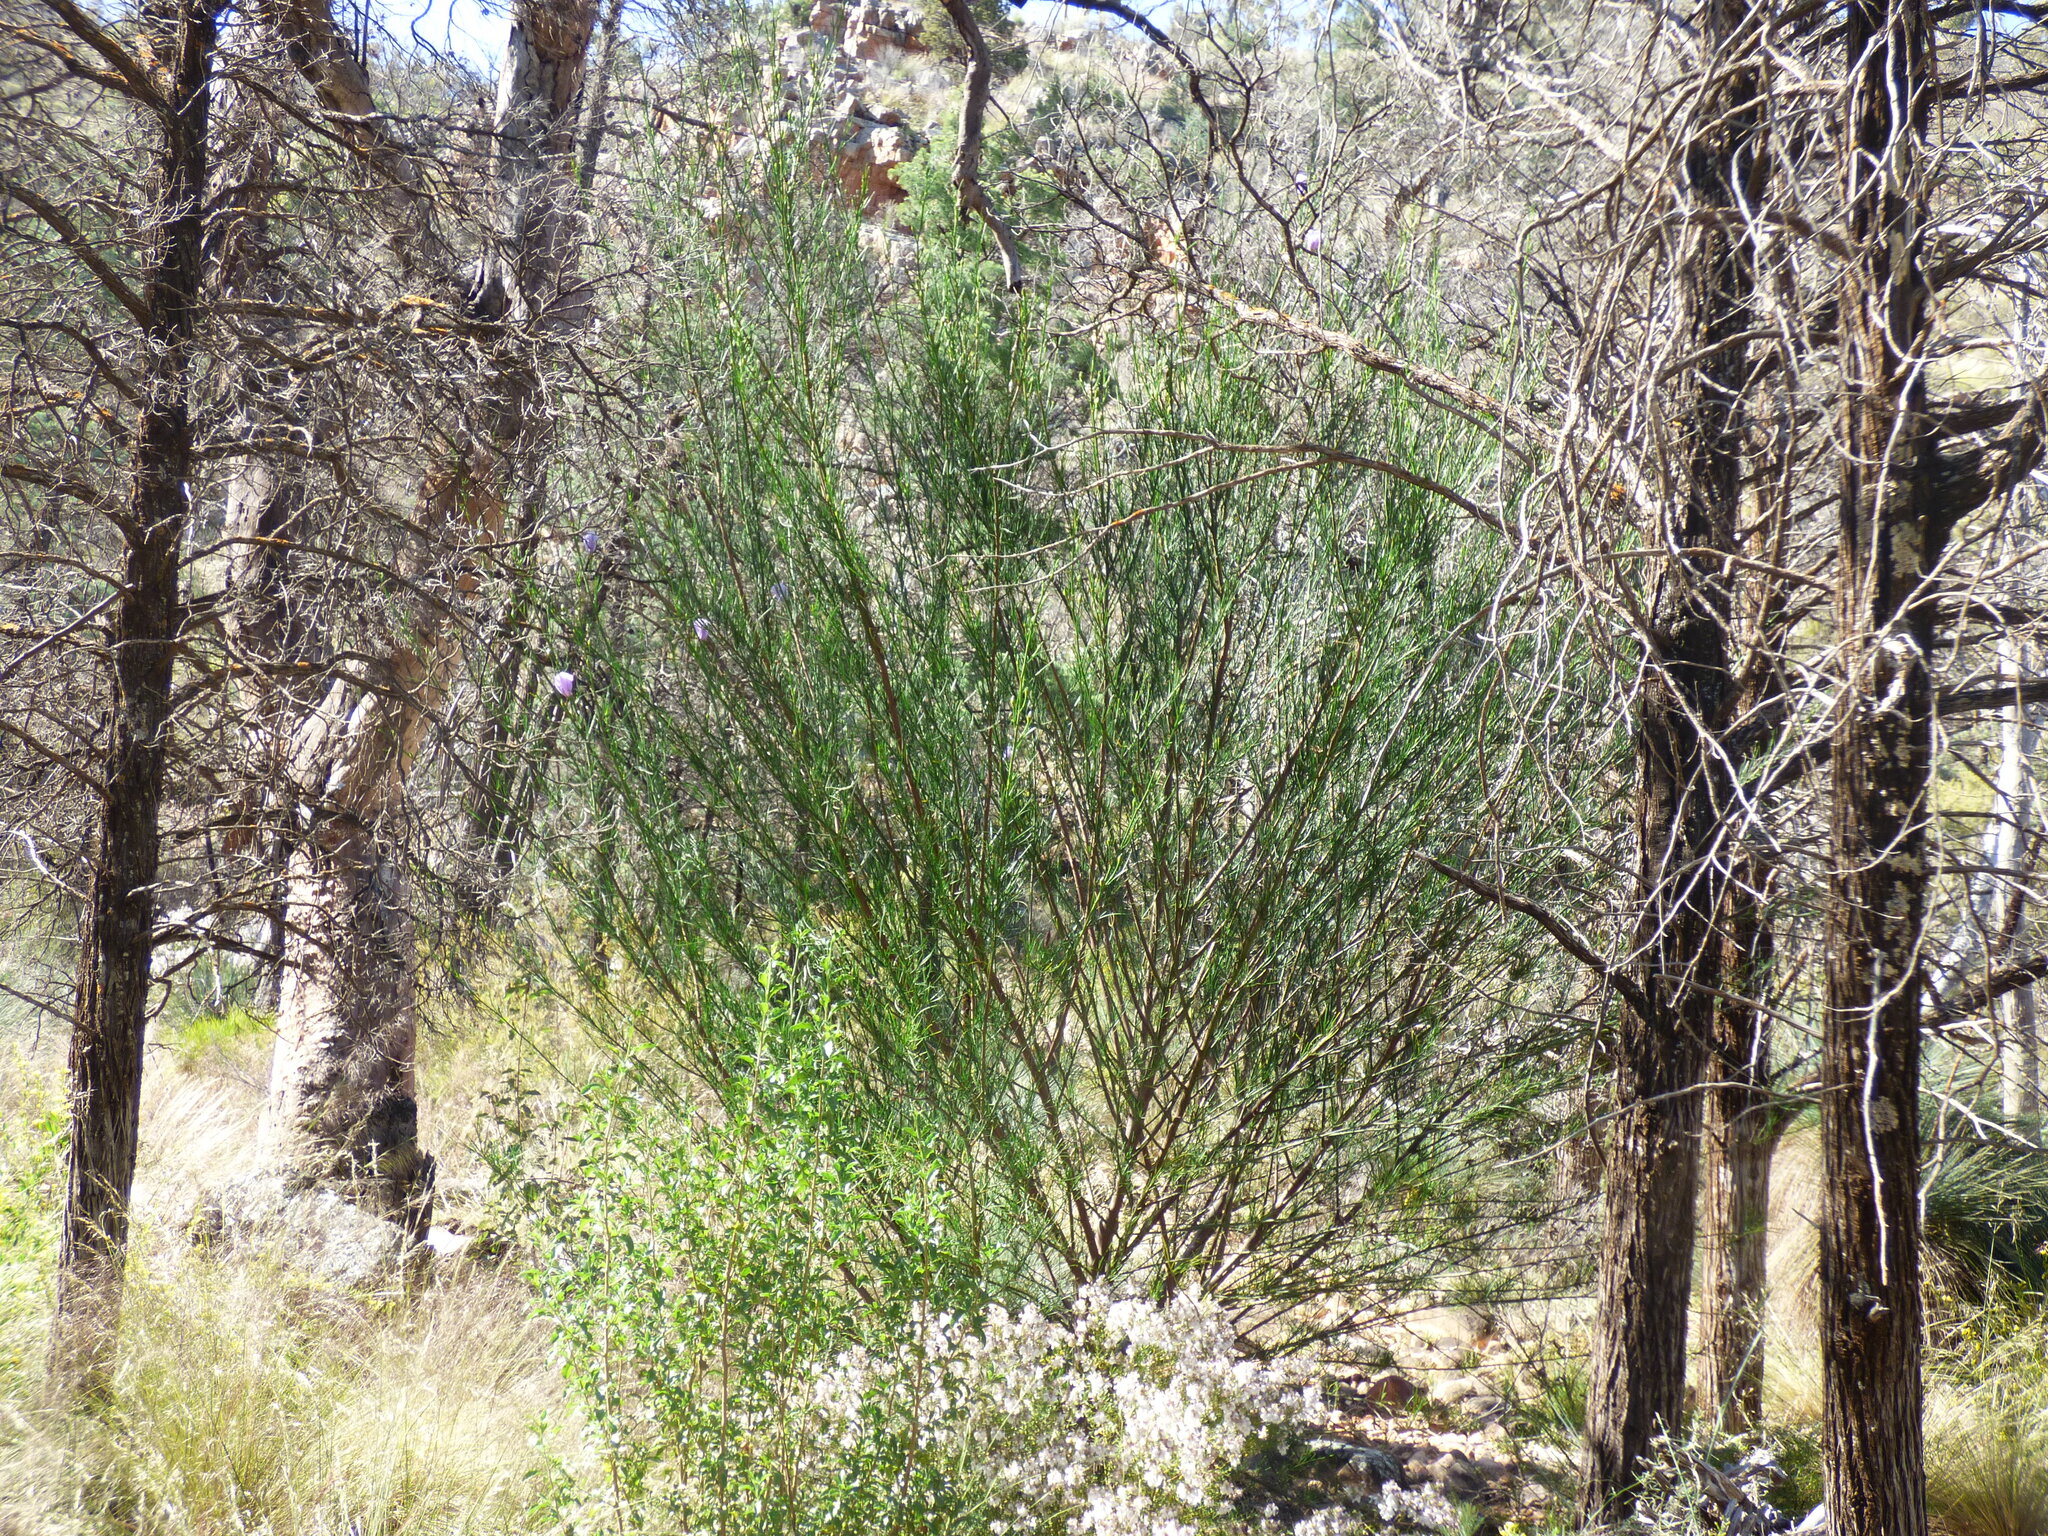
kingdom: Plantae
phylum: Tracheophyta
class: Magnoliopsida
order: Malvales
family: Malvaceae
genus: Hibiscus
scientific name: Hibiscus hakeifolius
